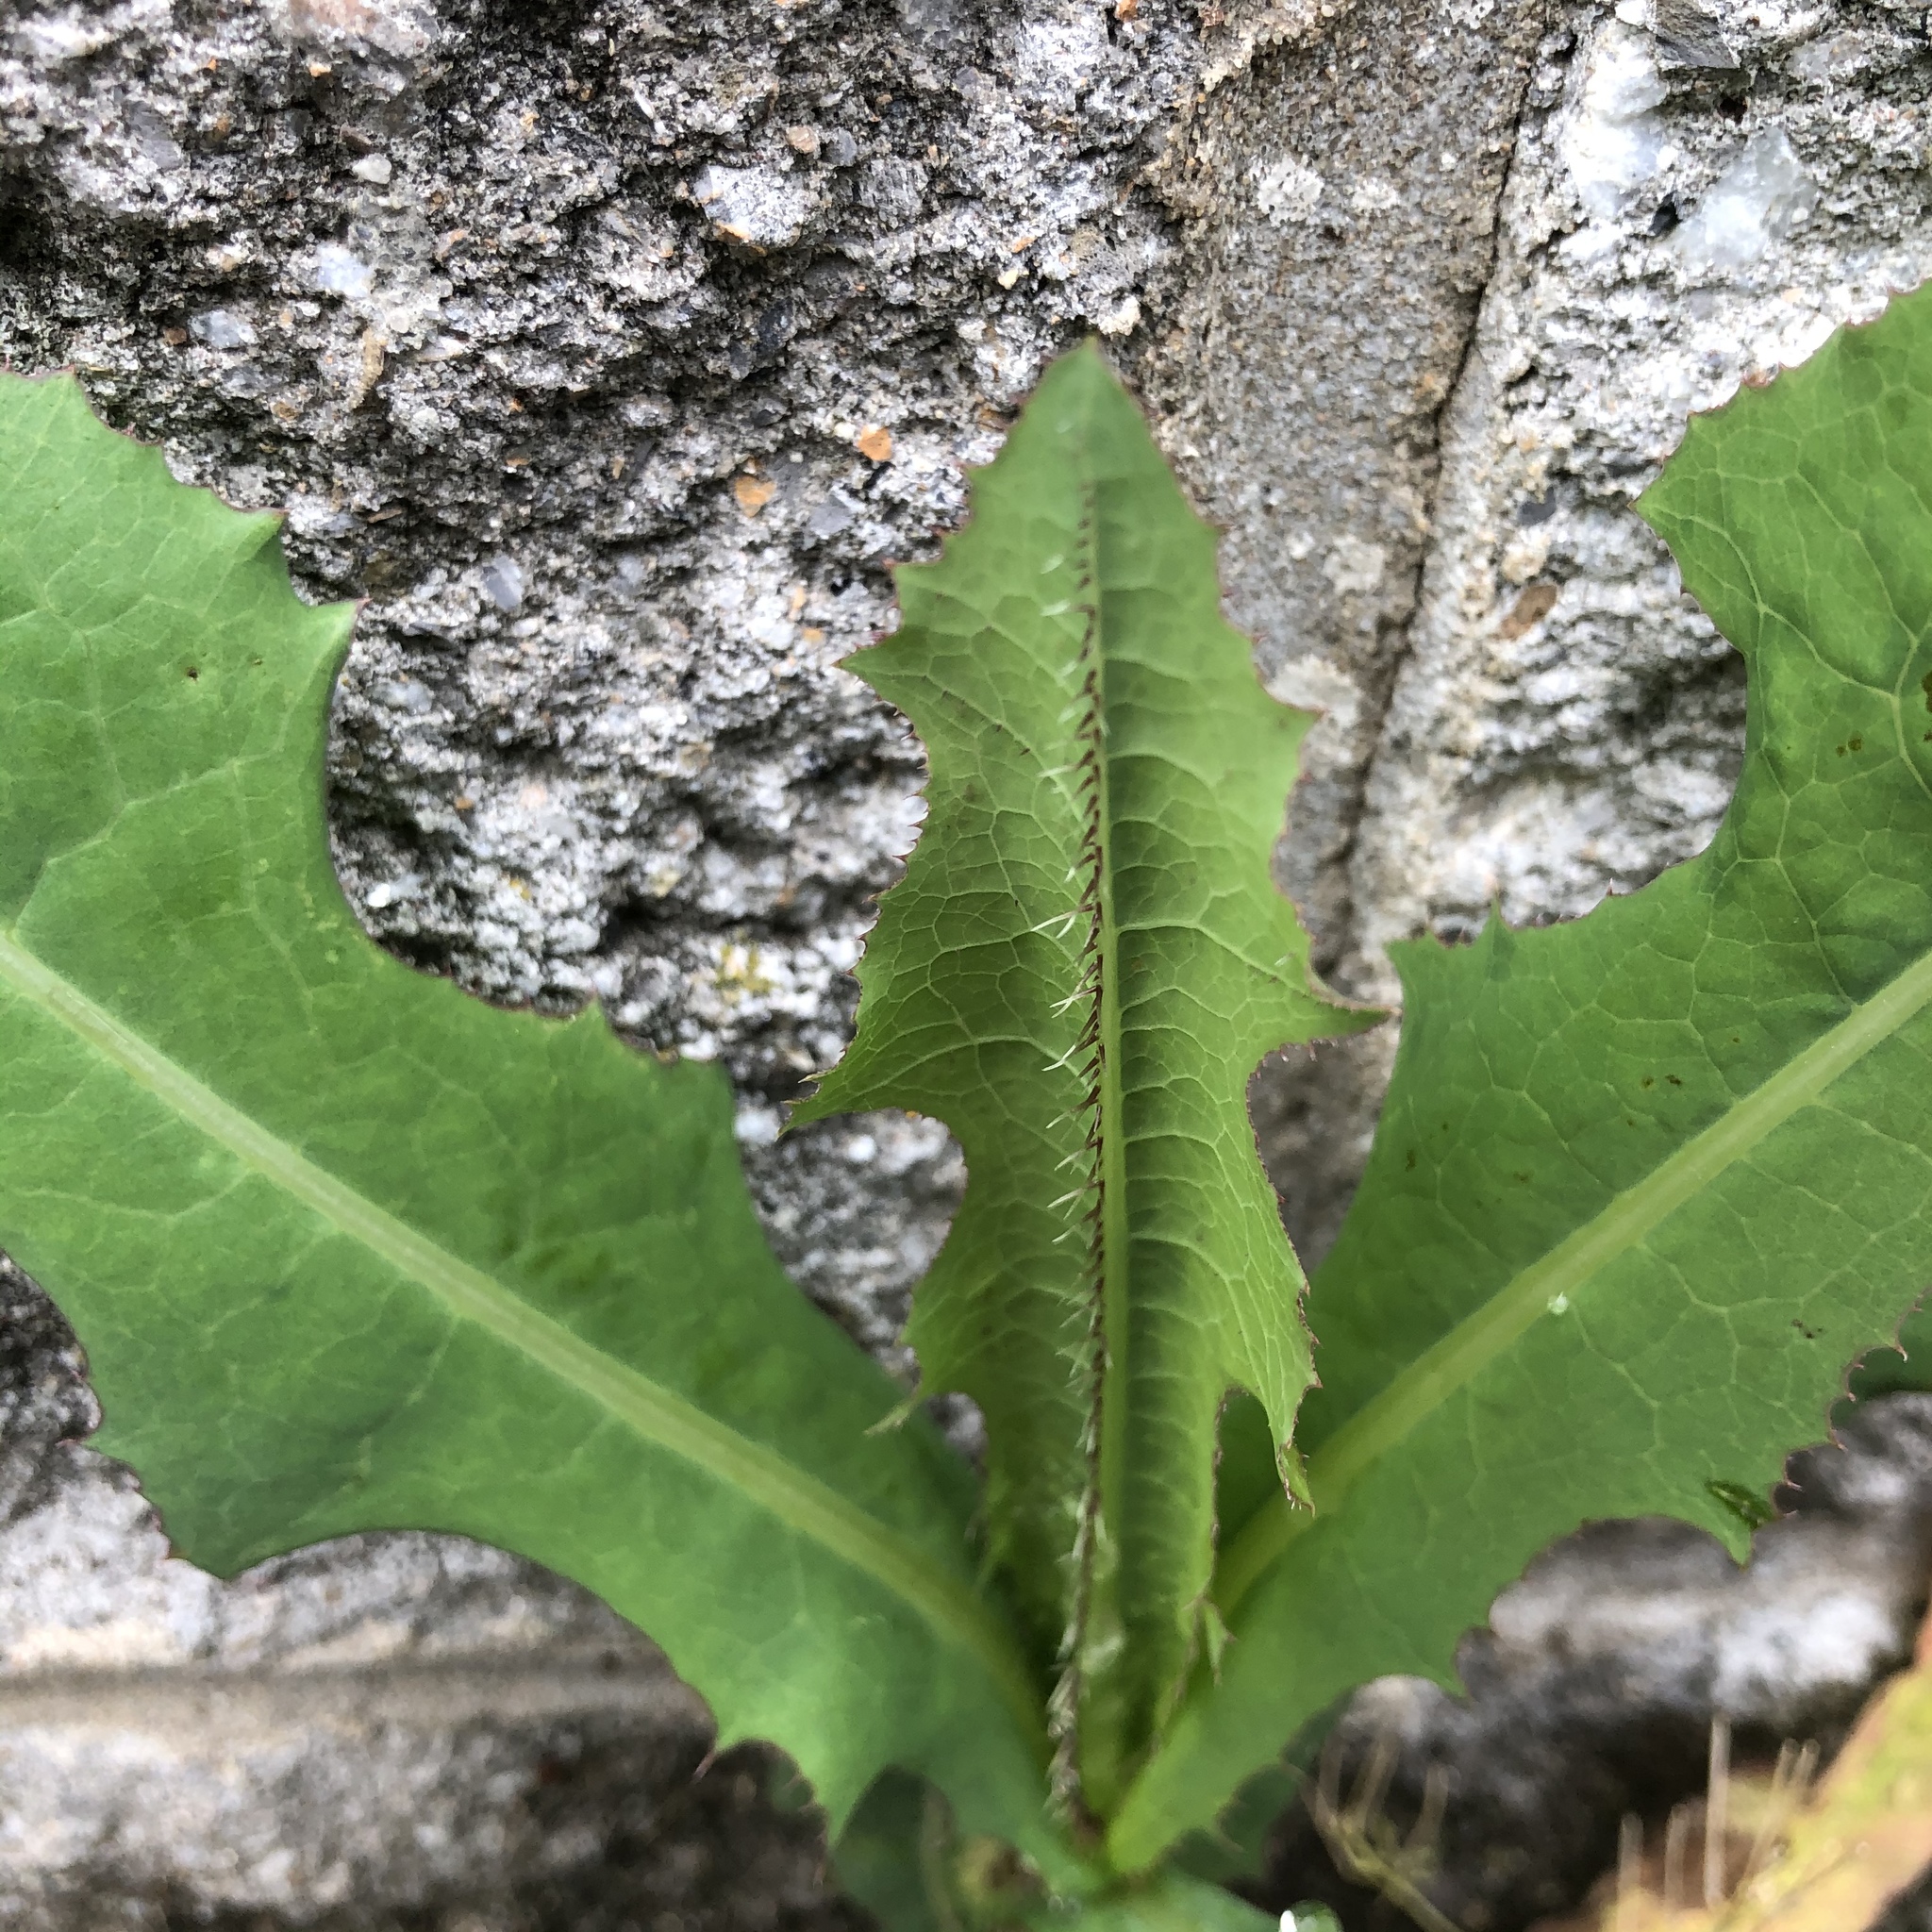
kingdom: Plantae
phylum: Tracheophyta
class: Magnoliopsida
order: Asterales
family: Asteraceae
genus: Lactuca
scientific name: Lactuca serriola
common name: Prickly lettuce
